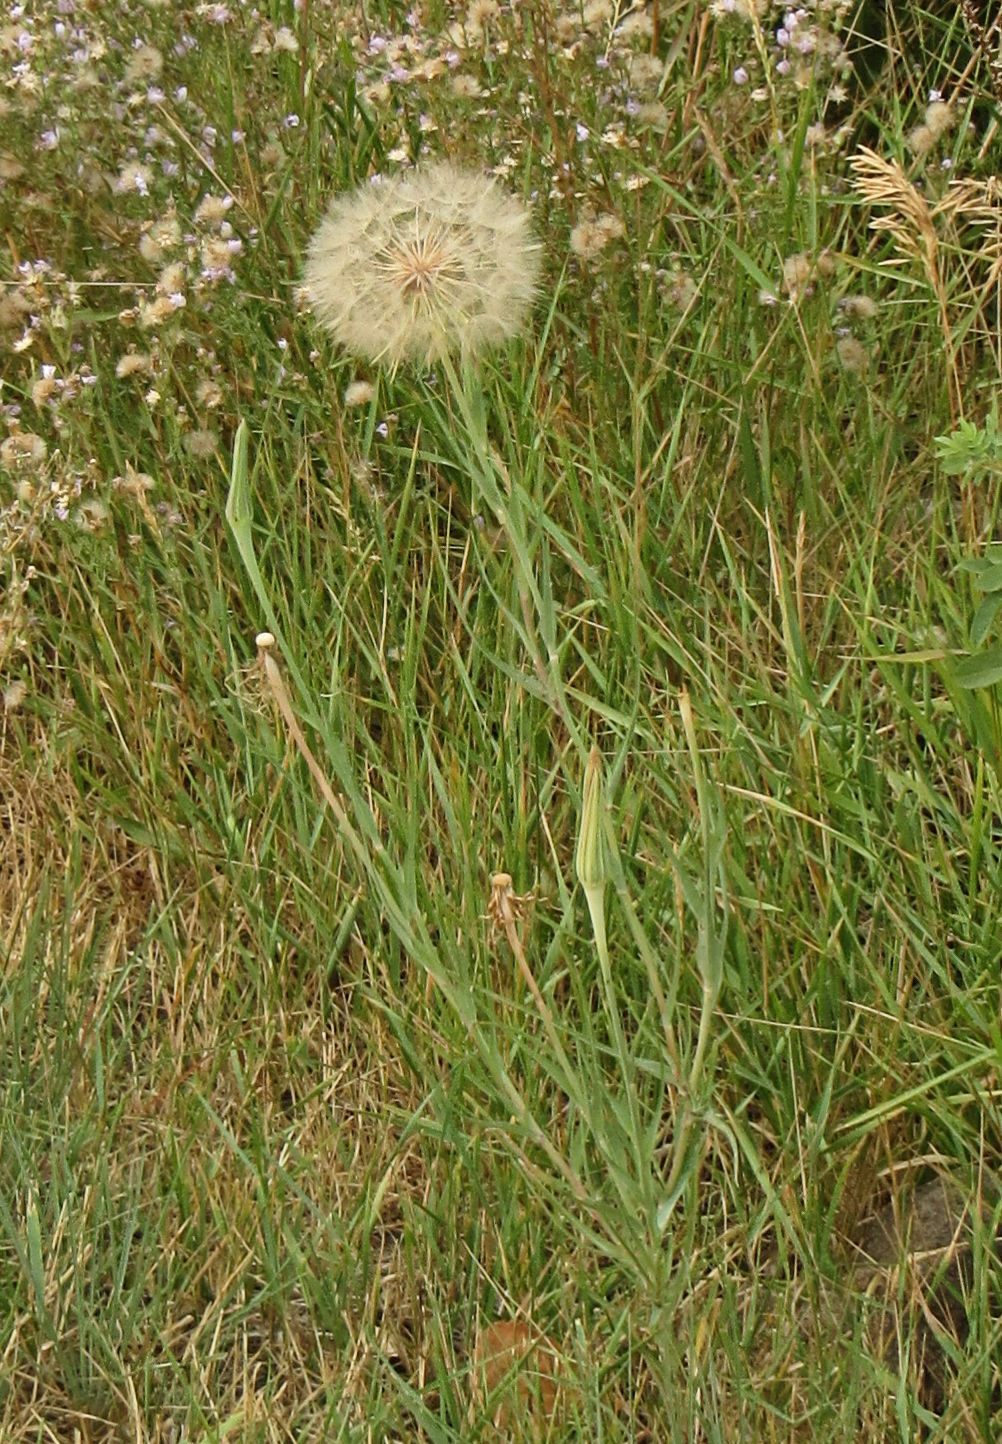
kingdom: Plantae
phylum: Tracheophyta
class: Magnoliopsida
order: Asterales
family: Asteraceae
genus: Tragopogon
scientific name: Tragopogon dubius
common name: Yellow salsify
